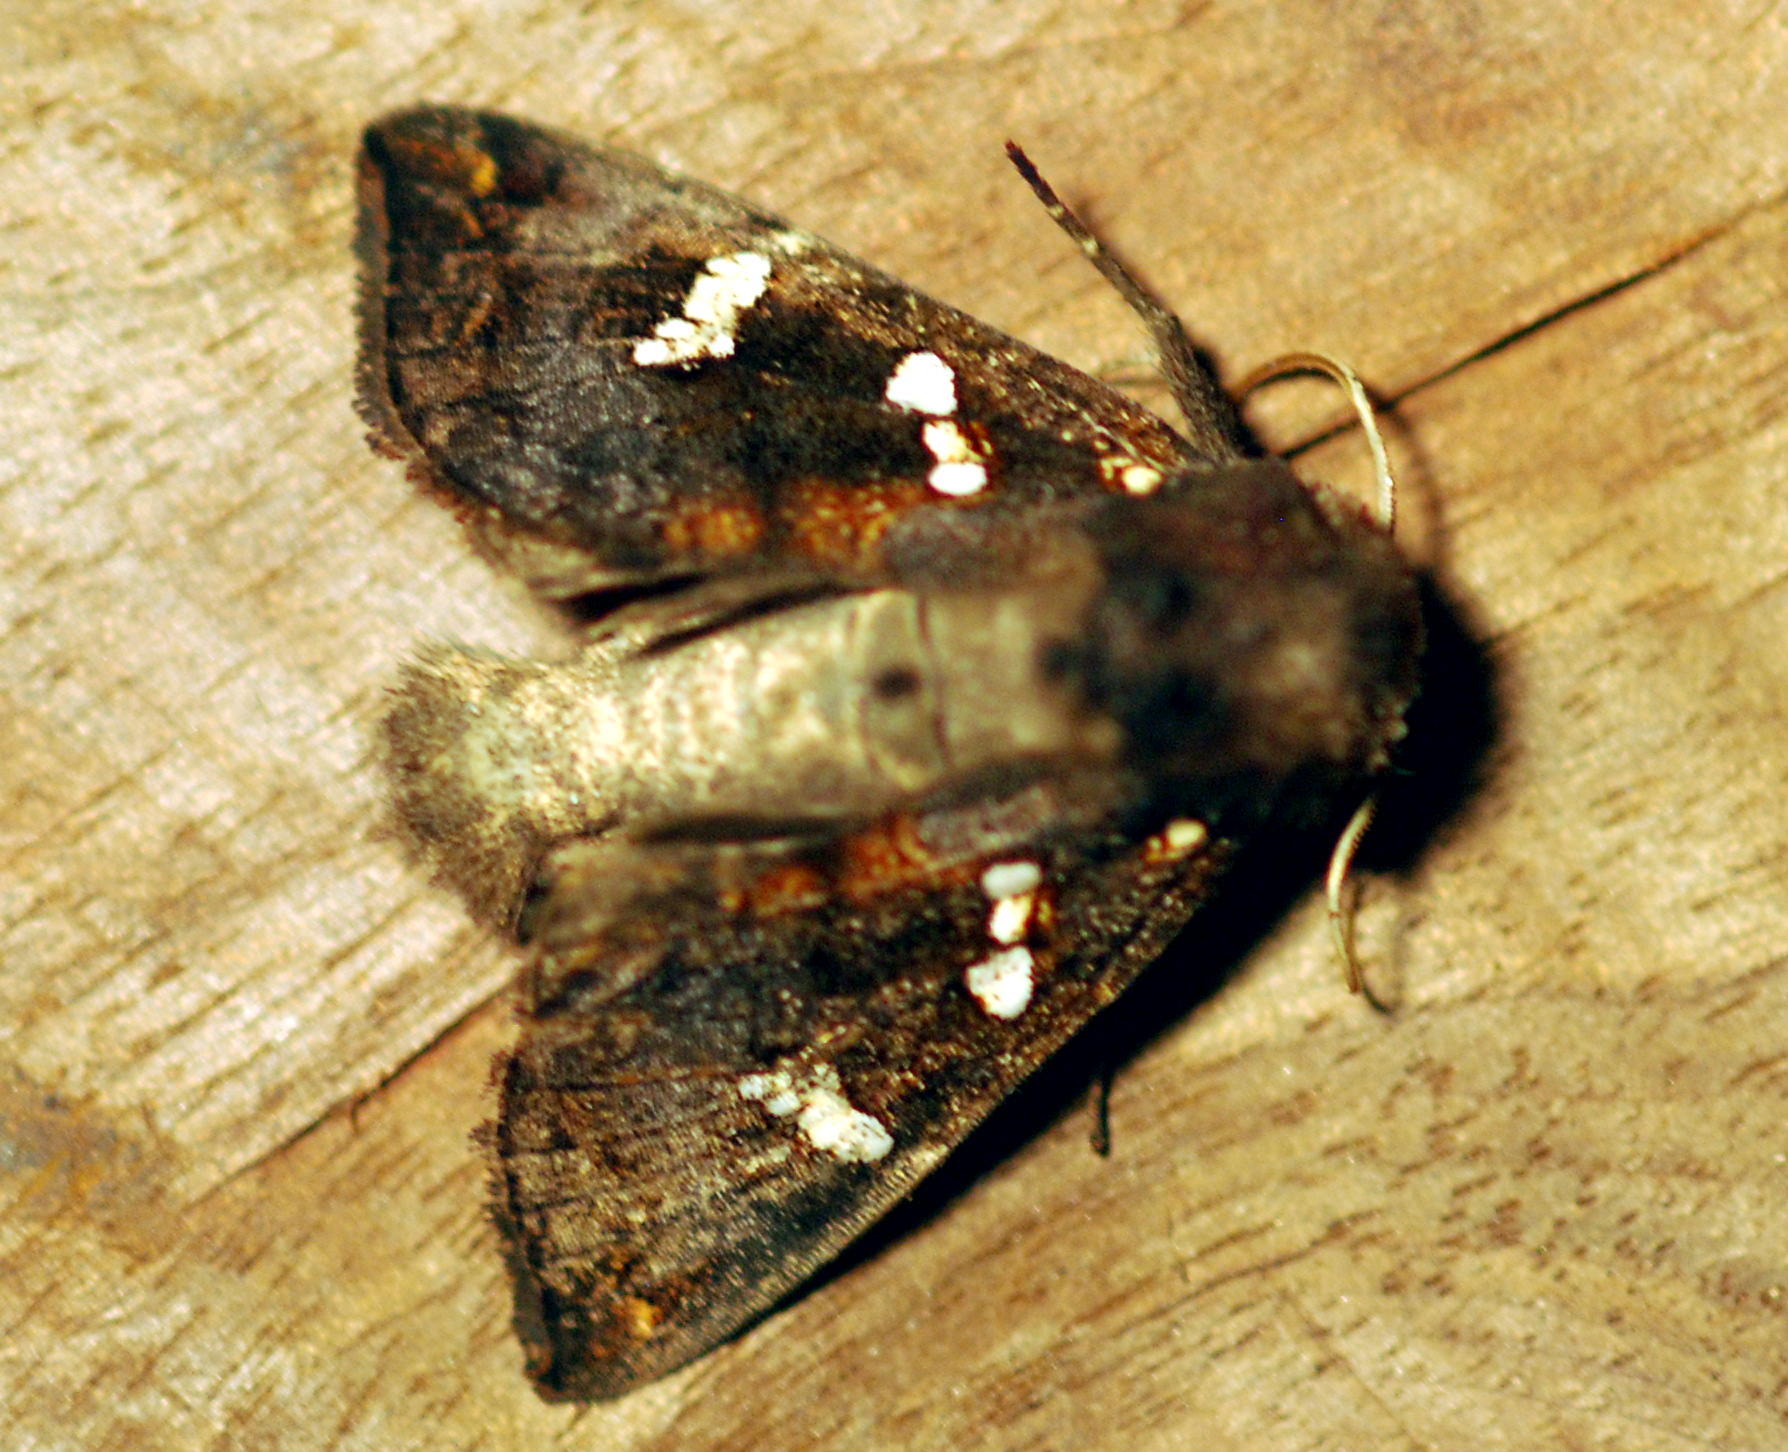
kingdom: Animalia
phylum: Arthropoda
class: Insecta
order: Lepidoptera
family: Noctuidae
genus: Papaipema
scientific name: Papaipema cerussata
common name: Ironweed borer moth
